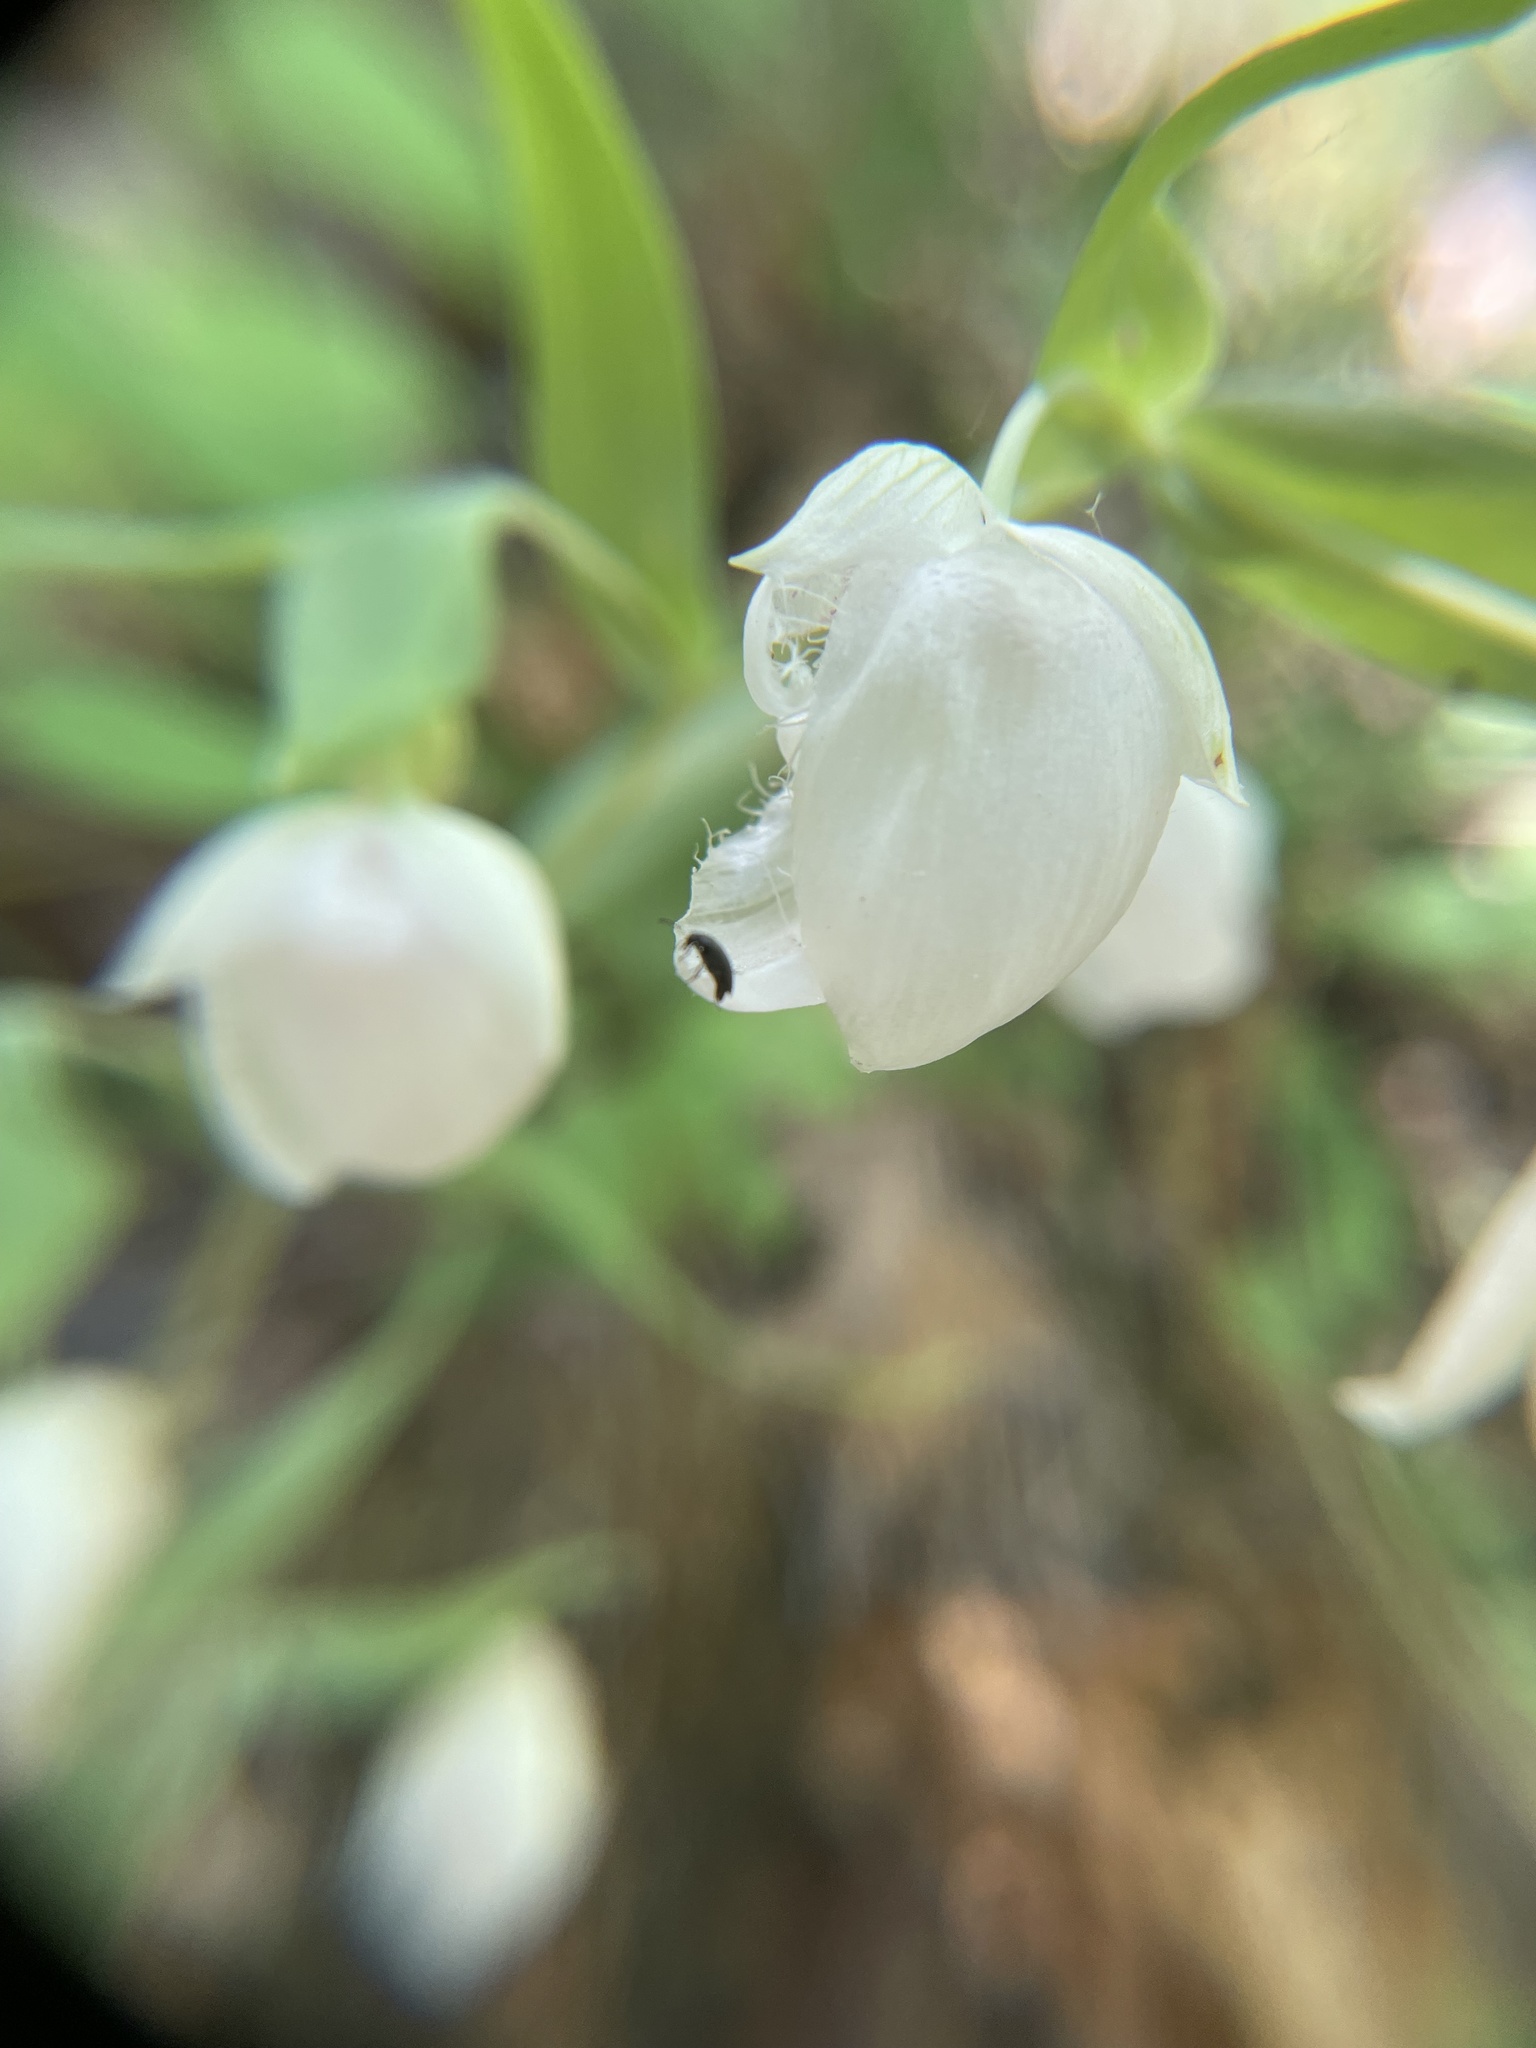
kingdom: Plantae
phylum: Tracheophyta
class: Liliopsida
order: Liliales
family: Liliaceae
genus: Calochortus
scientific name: Calochortus albus
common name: Fairy-lantern
